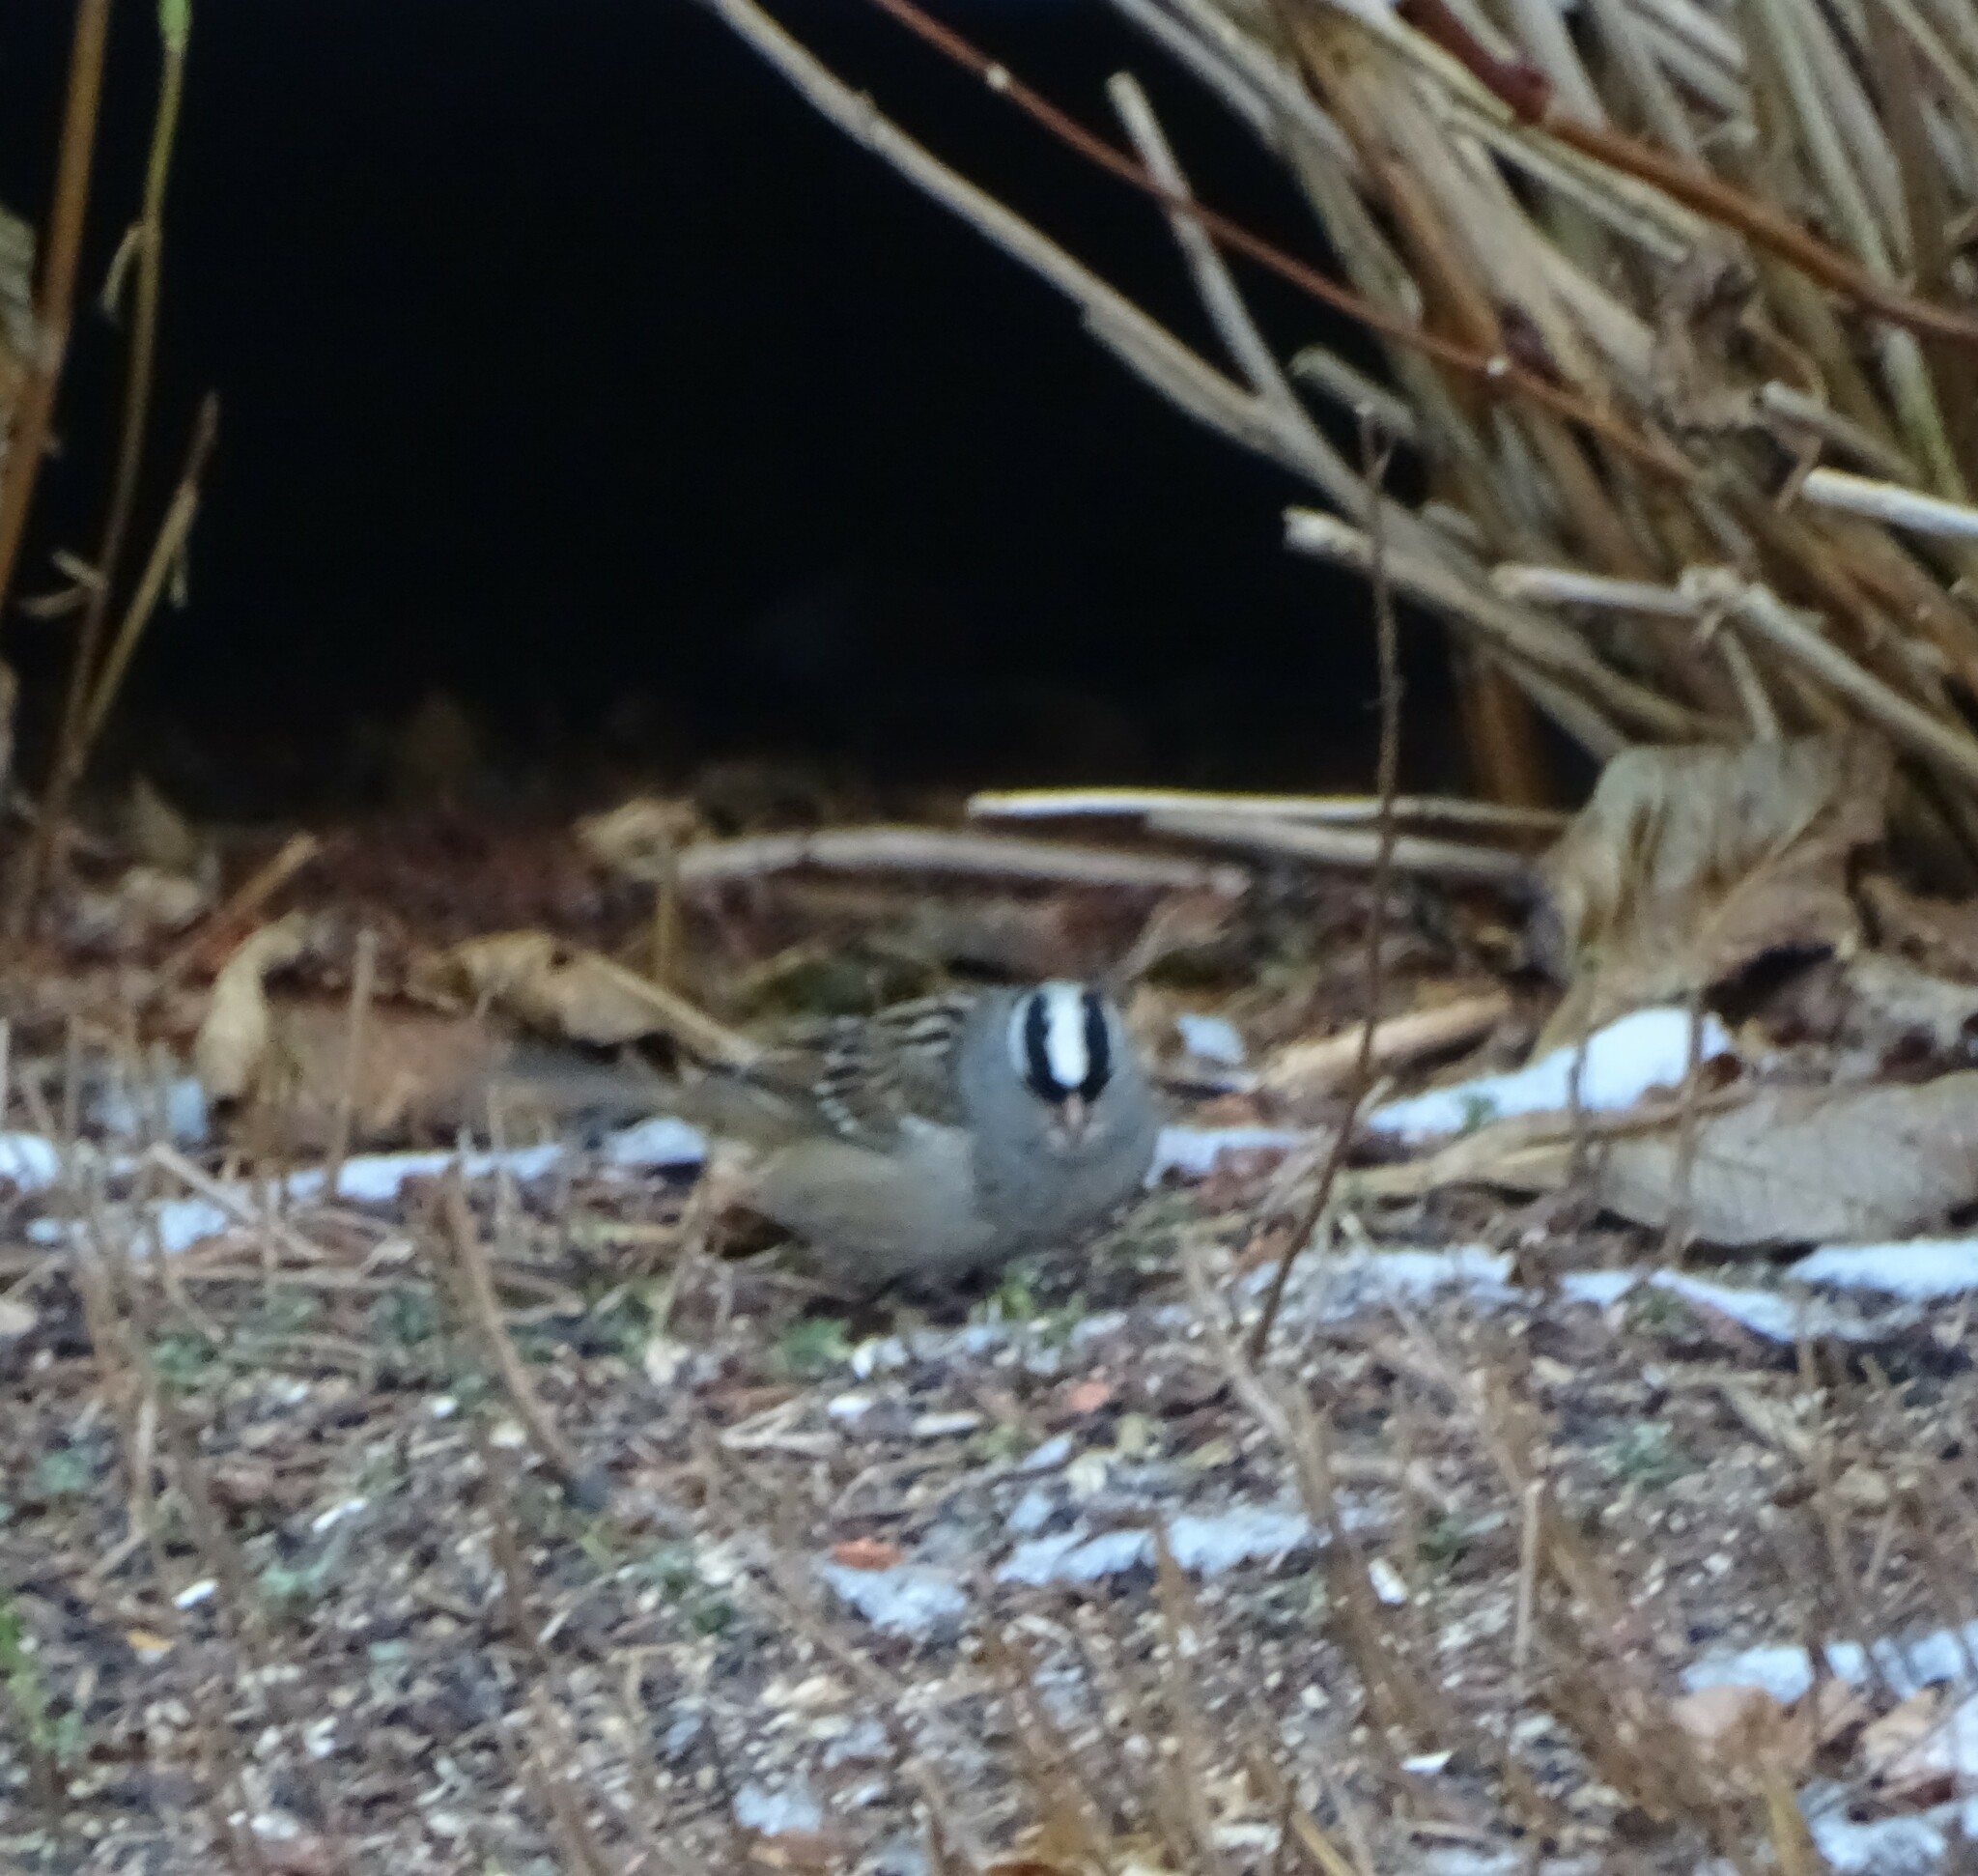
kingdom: Animalia
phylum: Chordata
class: Aves
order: Passeriformes
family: Passerellidae
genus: Zonotrichia
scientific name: Zonotrichia leucophrys
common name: White-crowned sparrow
